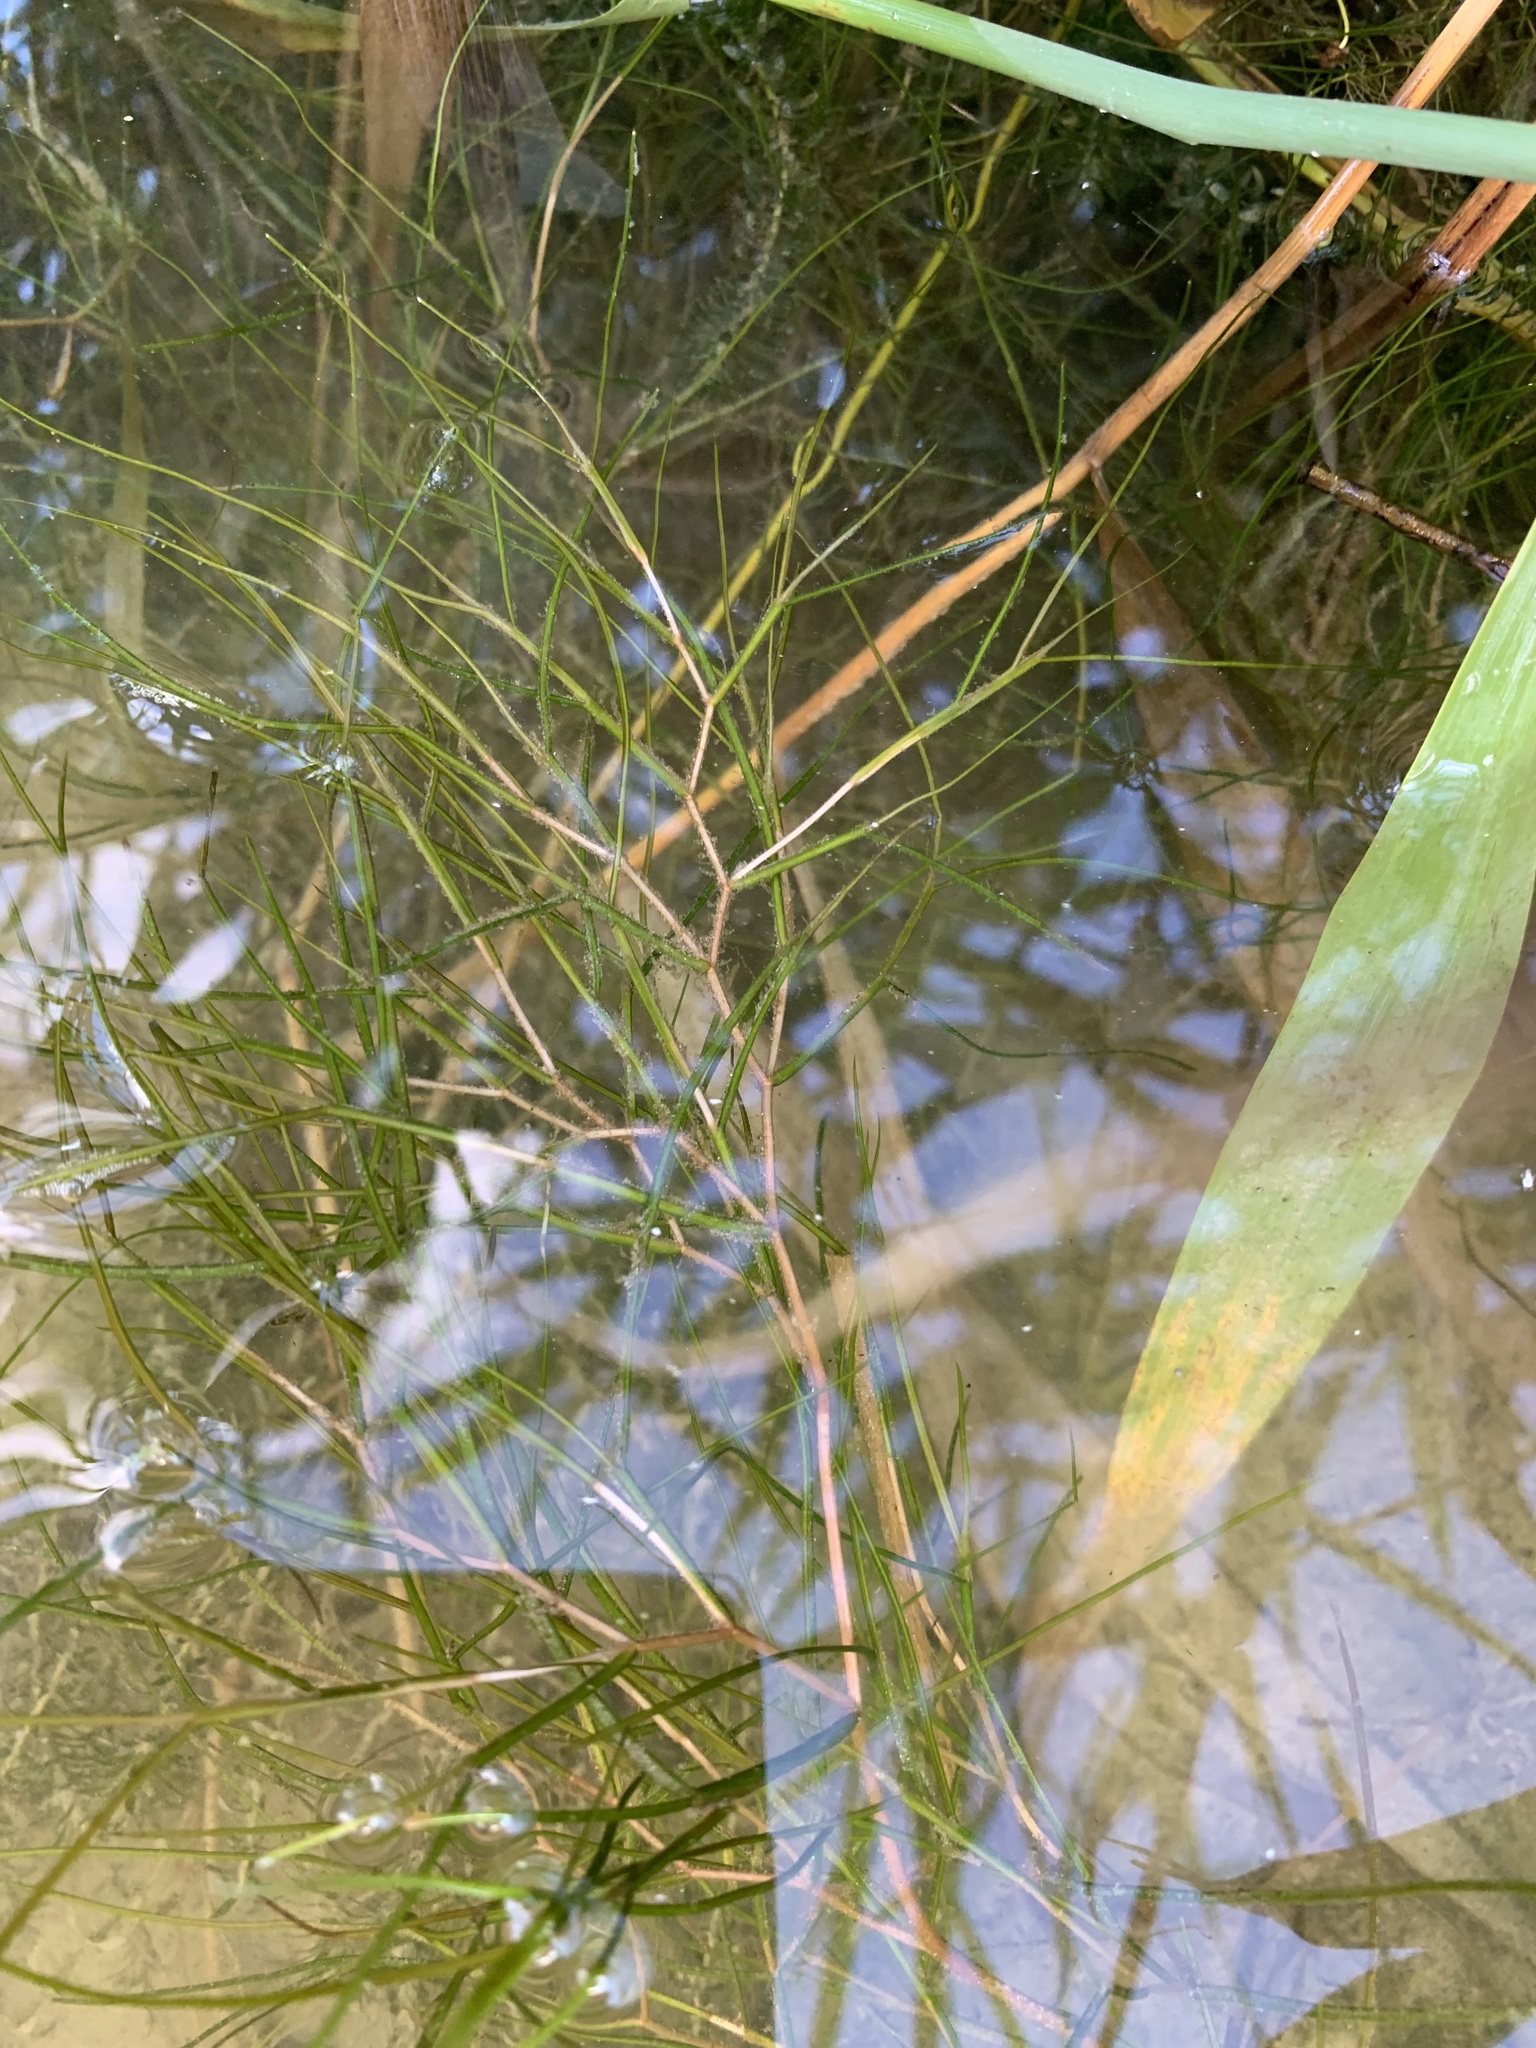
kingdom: Plantae
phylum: Tracheophyta
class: Liliopsida
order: Alismatales
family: Potamogetonaceae
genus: Stuckenia
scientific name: Stuckenia pectinata
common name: Sago pondweed
